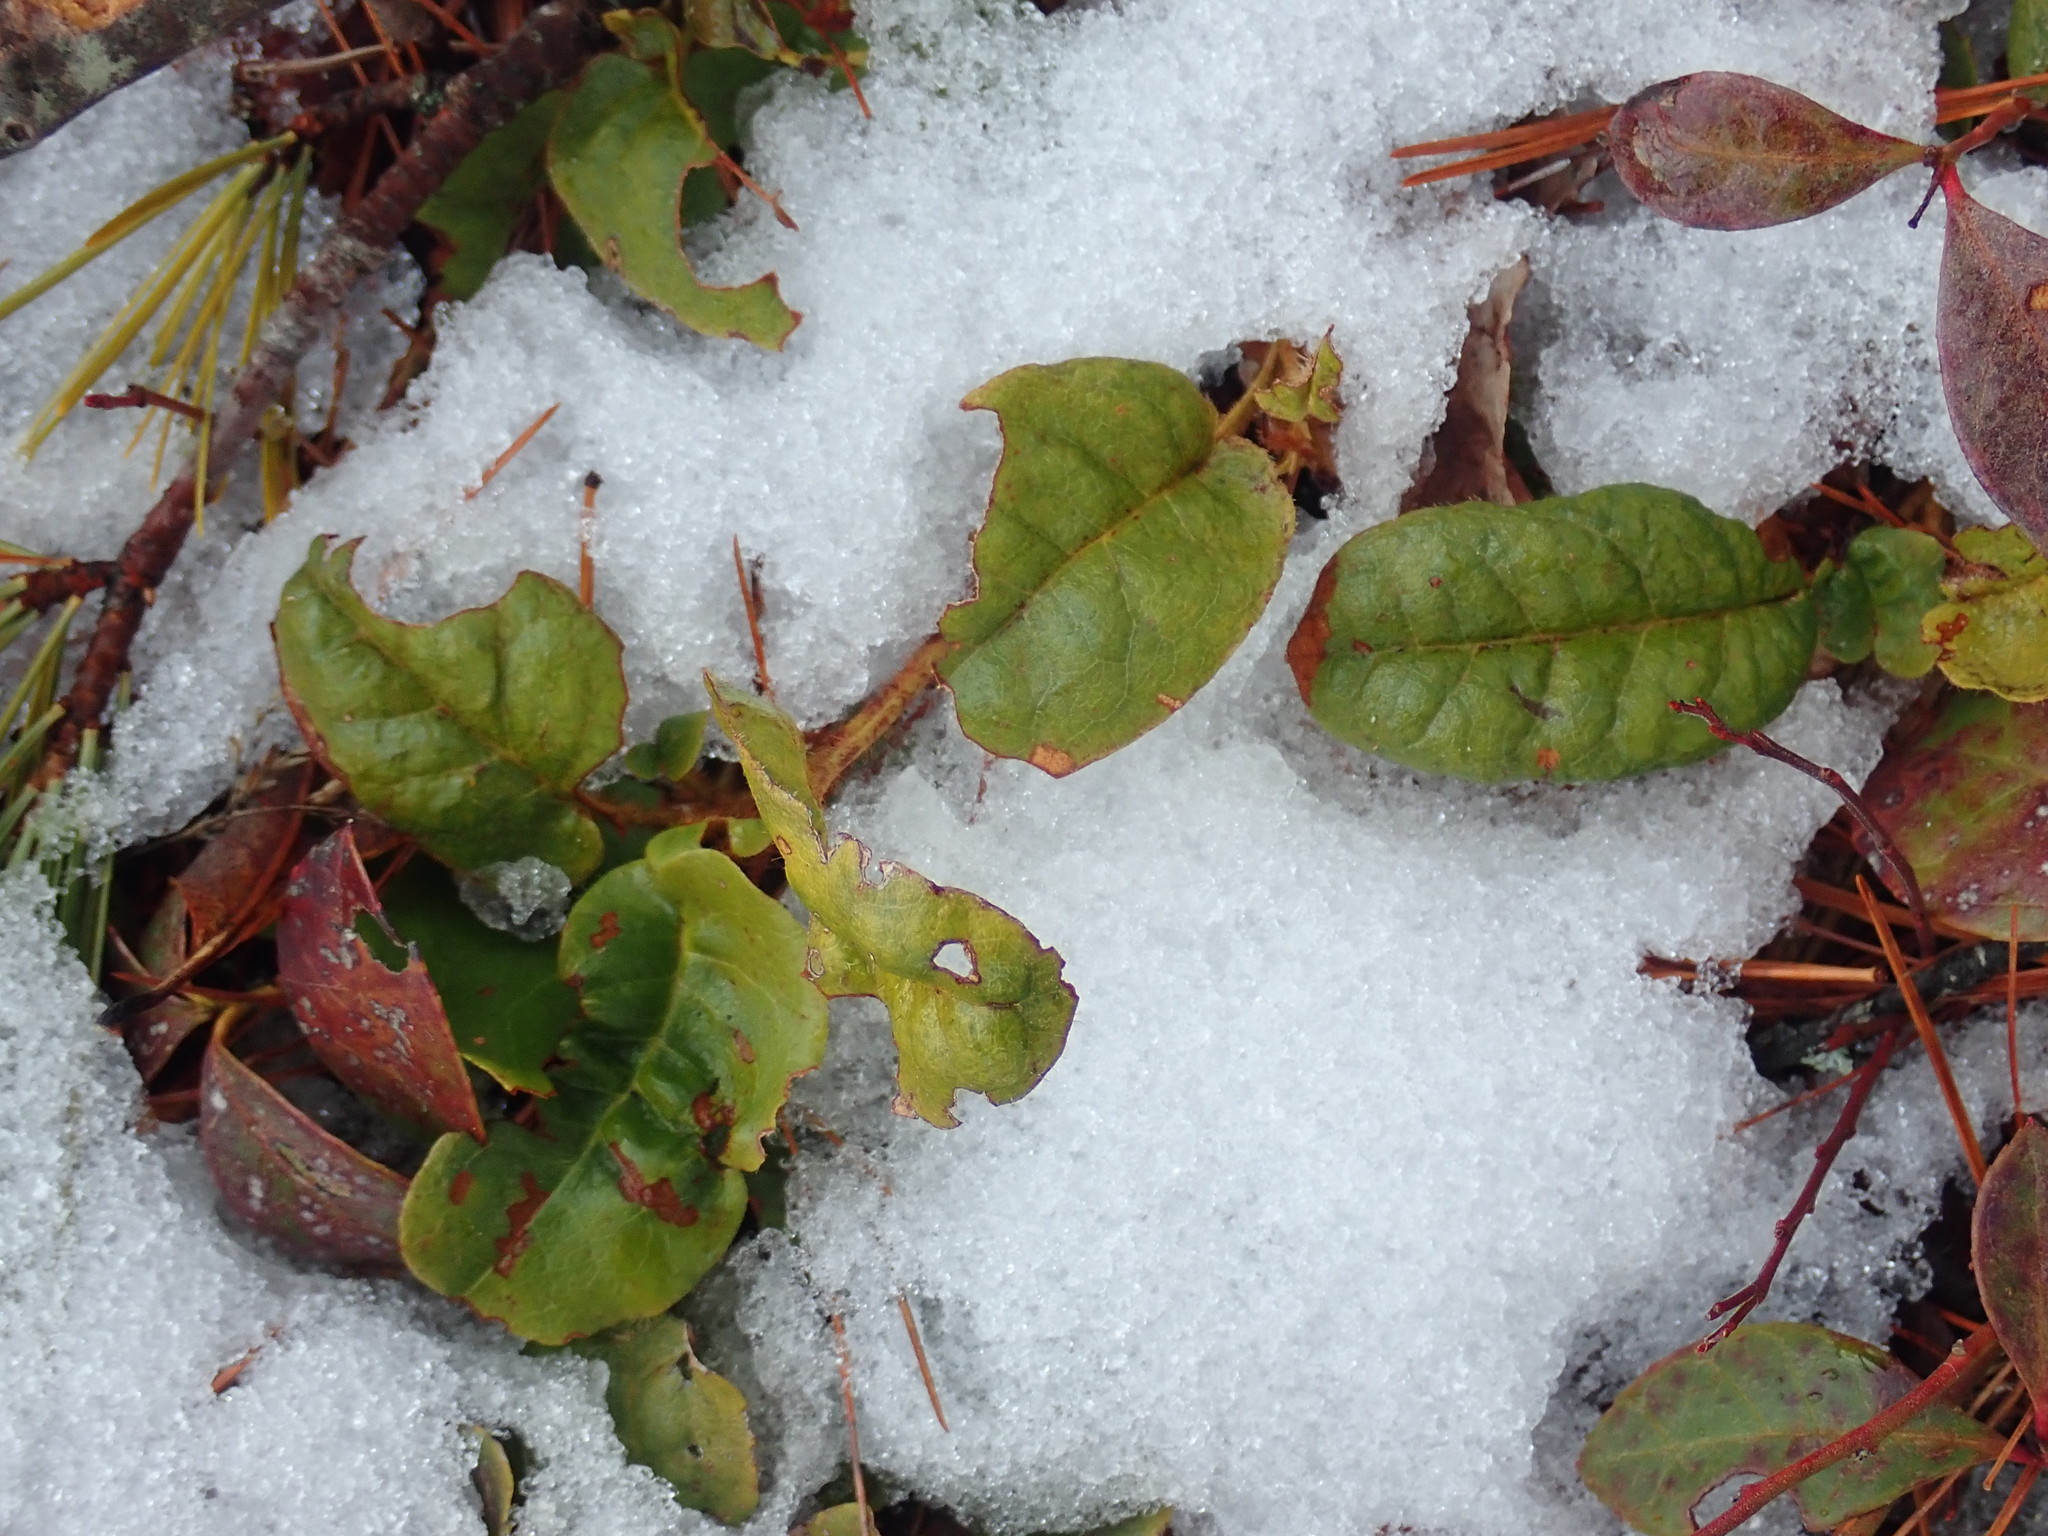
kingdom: Plantae
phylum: Tracheophyta
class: Magnoliopsida
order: Ericales
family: Ericaceae
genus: Epigaea
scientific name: Epigaea repens
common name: Gravelroot
